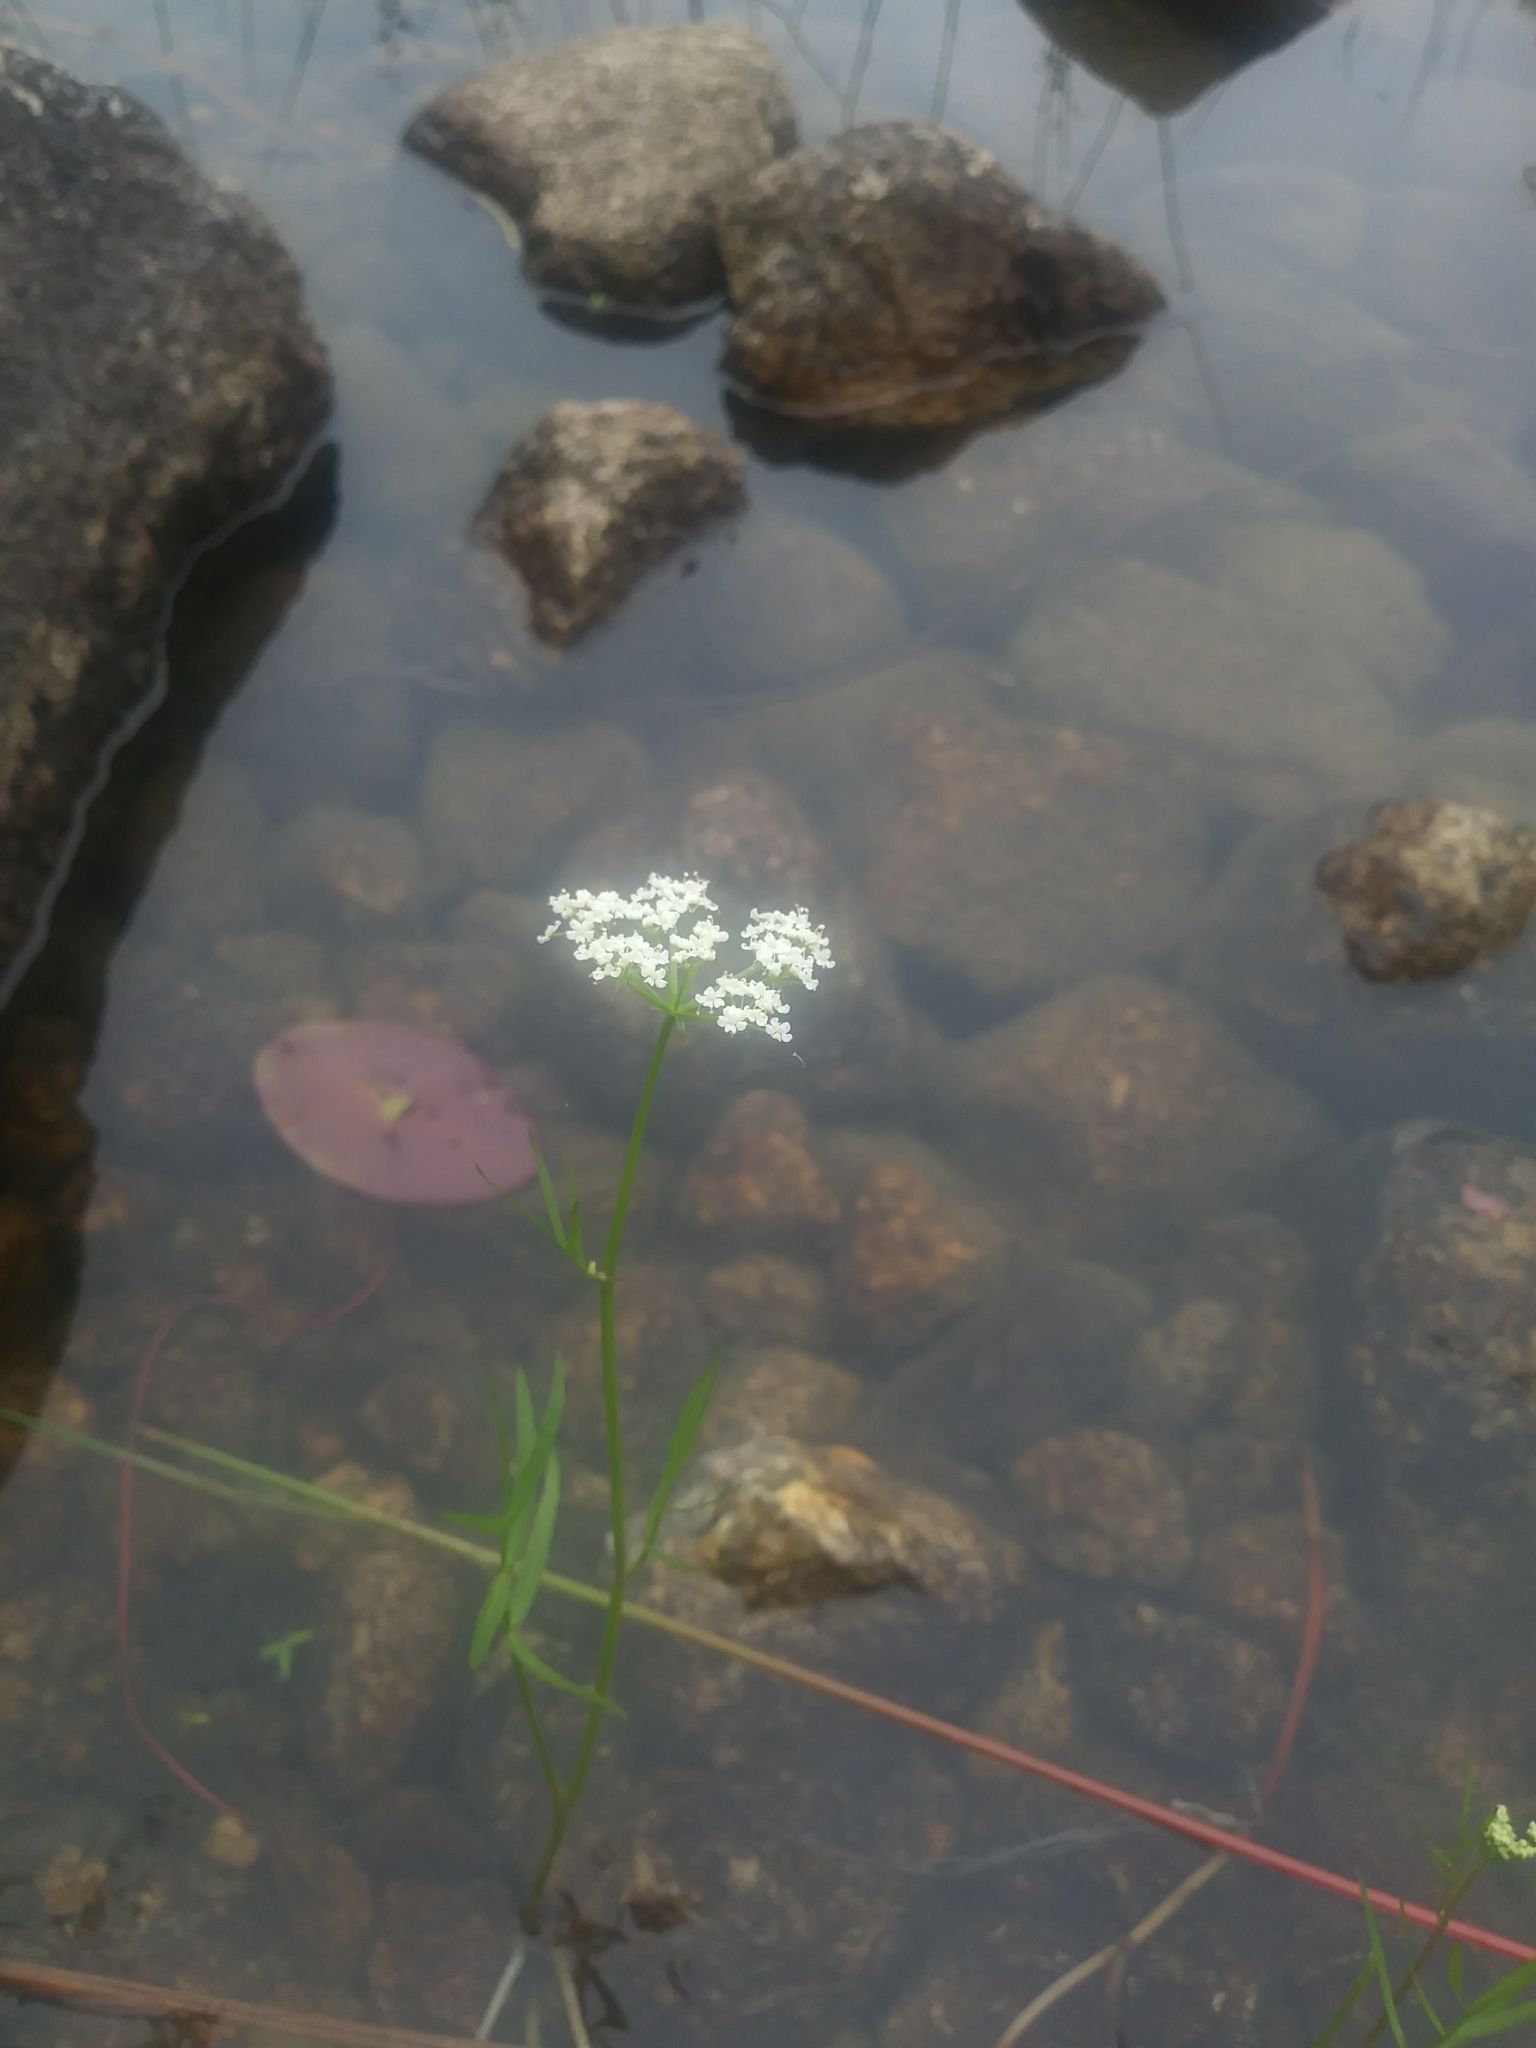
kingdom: Plantae
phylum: Tracheophyta
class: Magnoliopsida
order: Apiales
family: Apiaceae
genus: Sium
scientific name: Sium suave
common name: Hemlock water-parsnip
